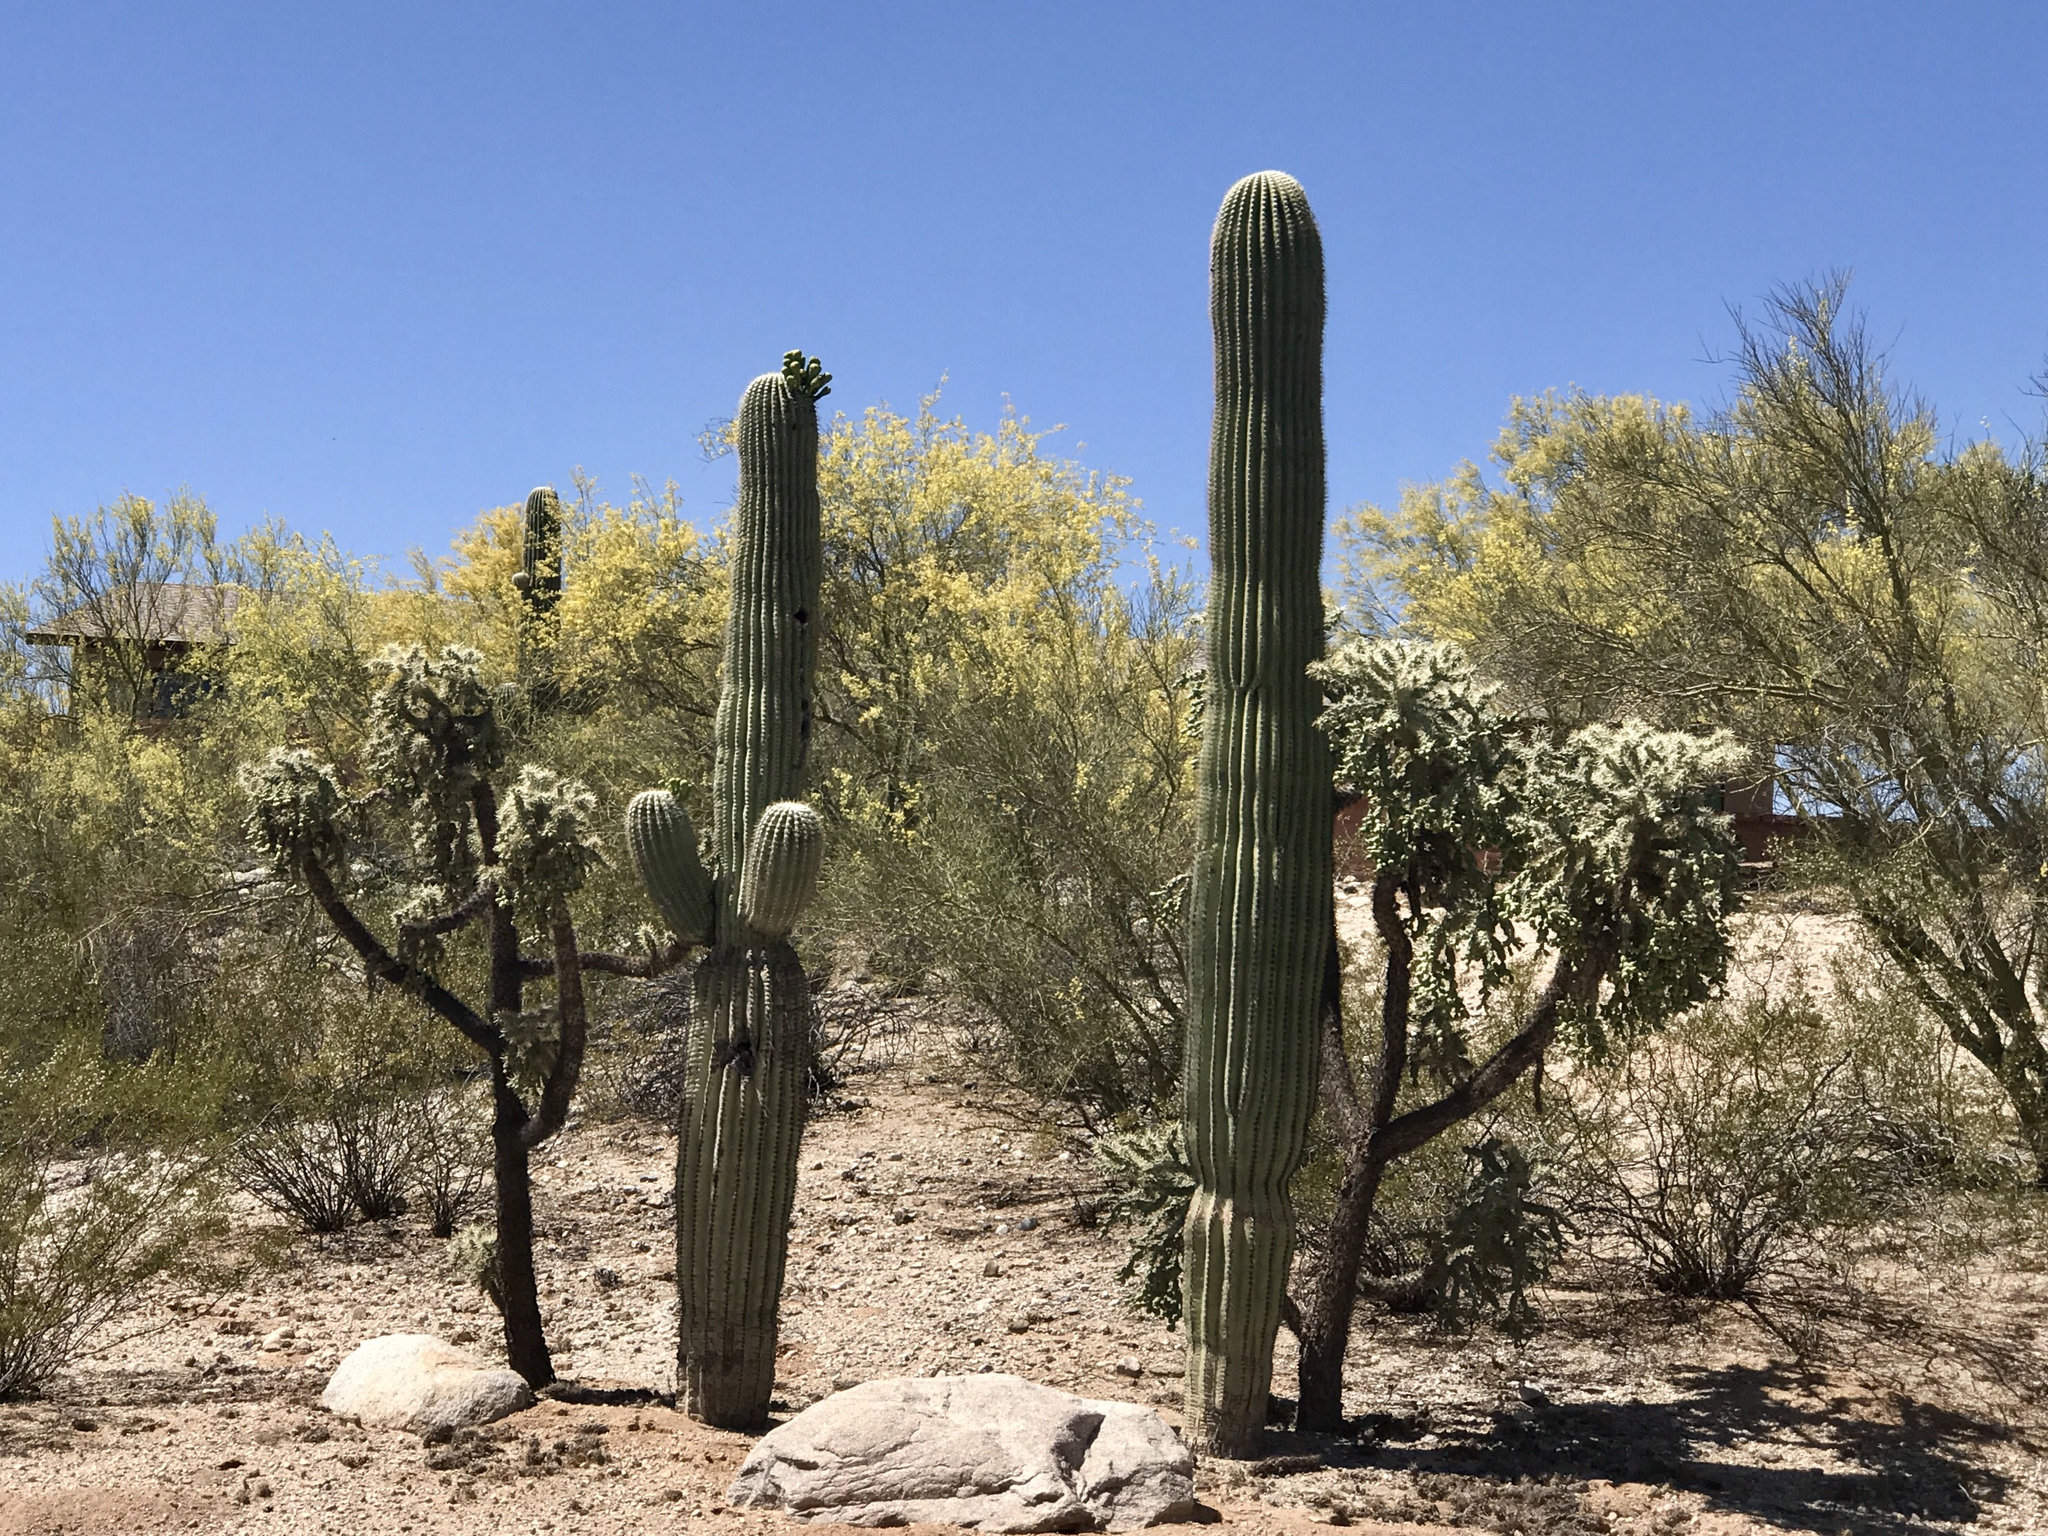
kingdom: Plantae
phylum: Tracheophyta
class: Magnoliopsida
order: Caryophyllales
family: Cactaceae
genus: Cylindropuntia
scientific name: Cylindropuntia fulgida
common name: Jumping cholla
